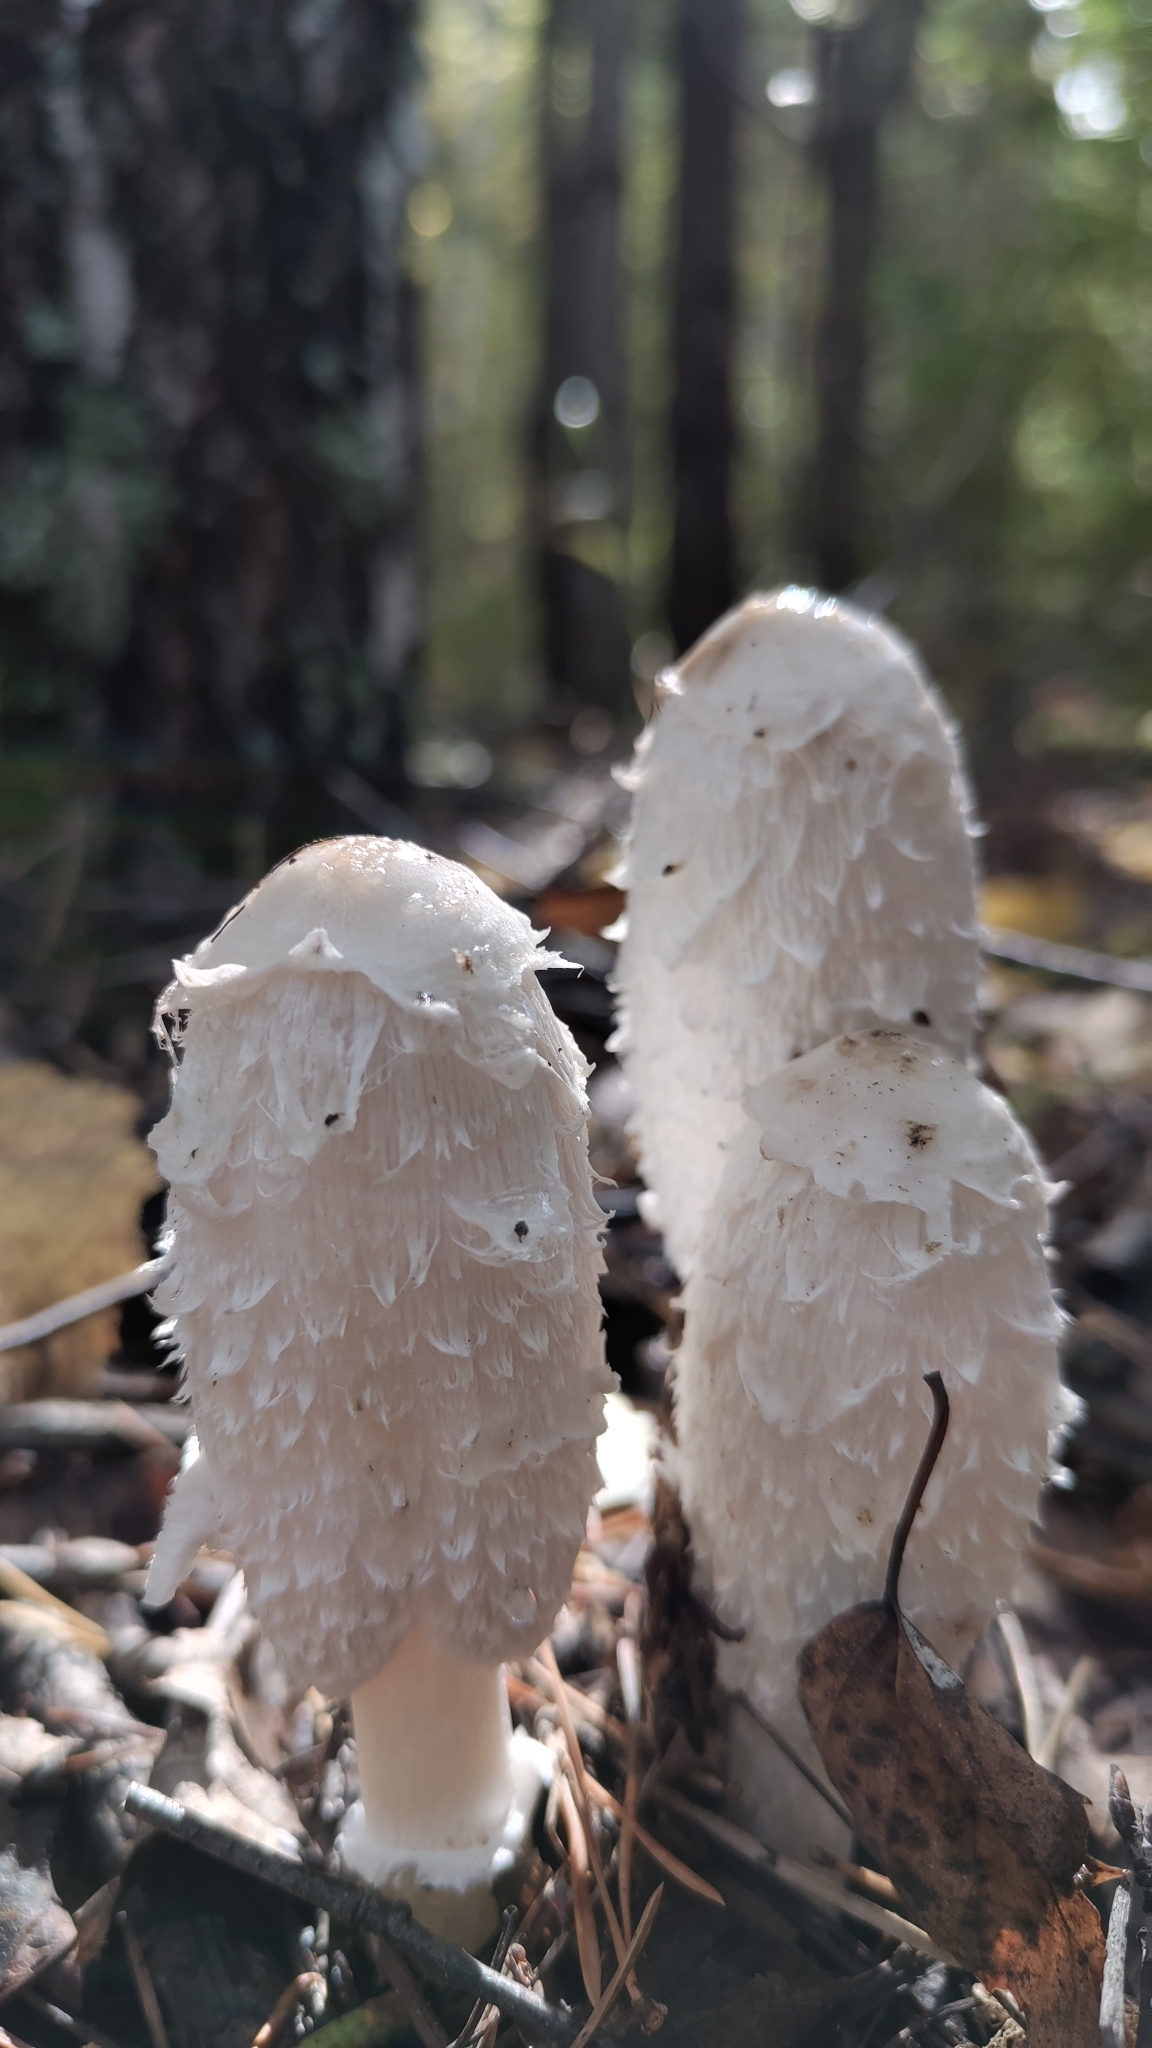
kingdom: Fungi
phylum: Basidiomycota
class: Agaricomycetes
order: Agaricales
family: Agaricaceae
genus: Coprinus
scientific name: Coprinus comatus
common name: Lawyer's wig
